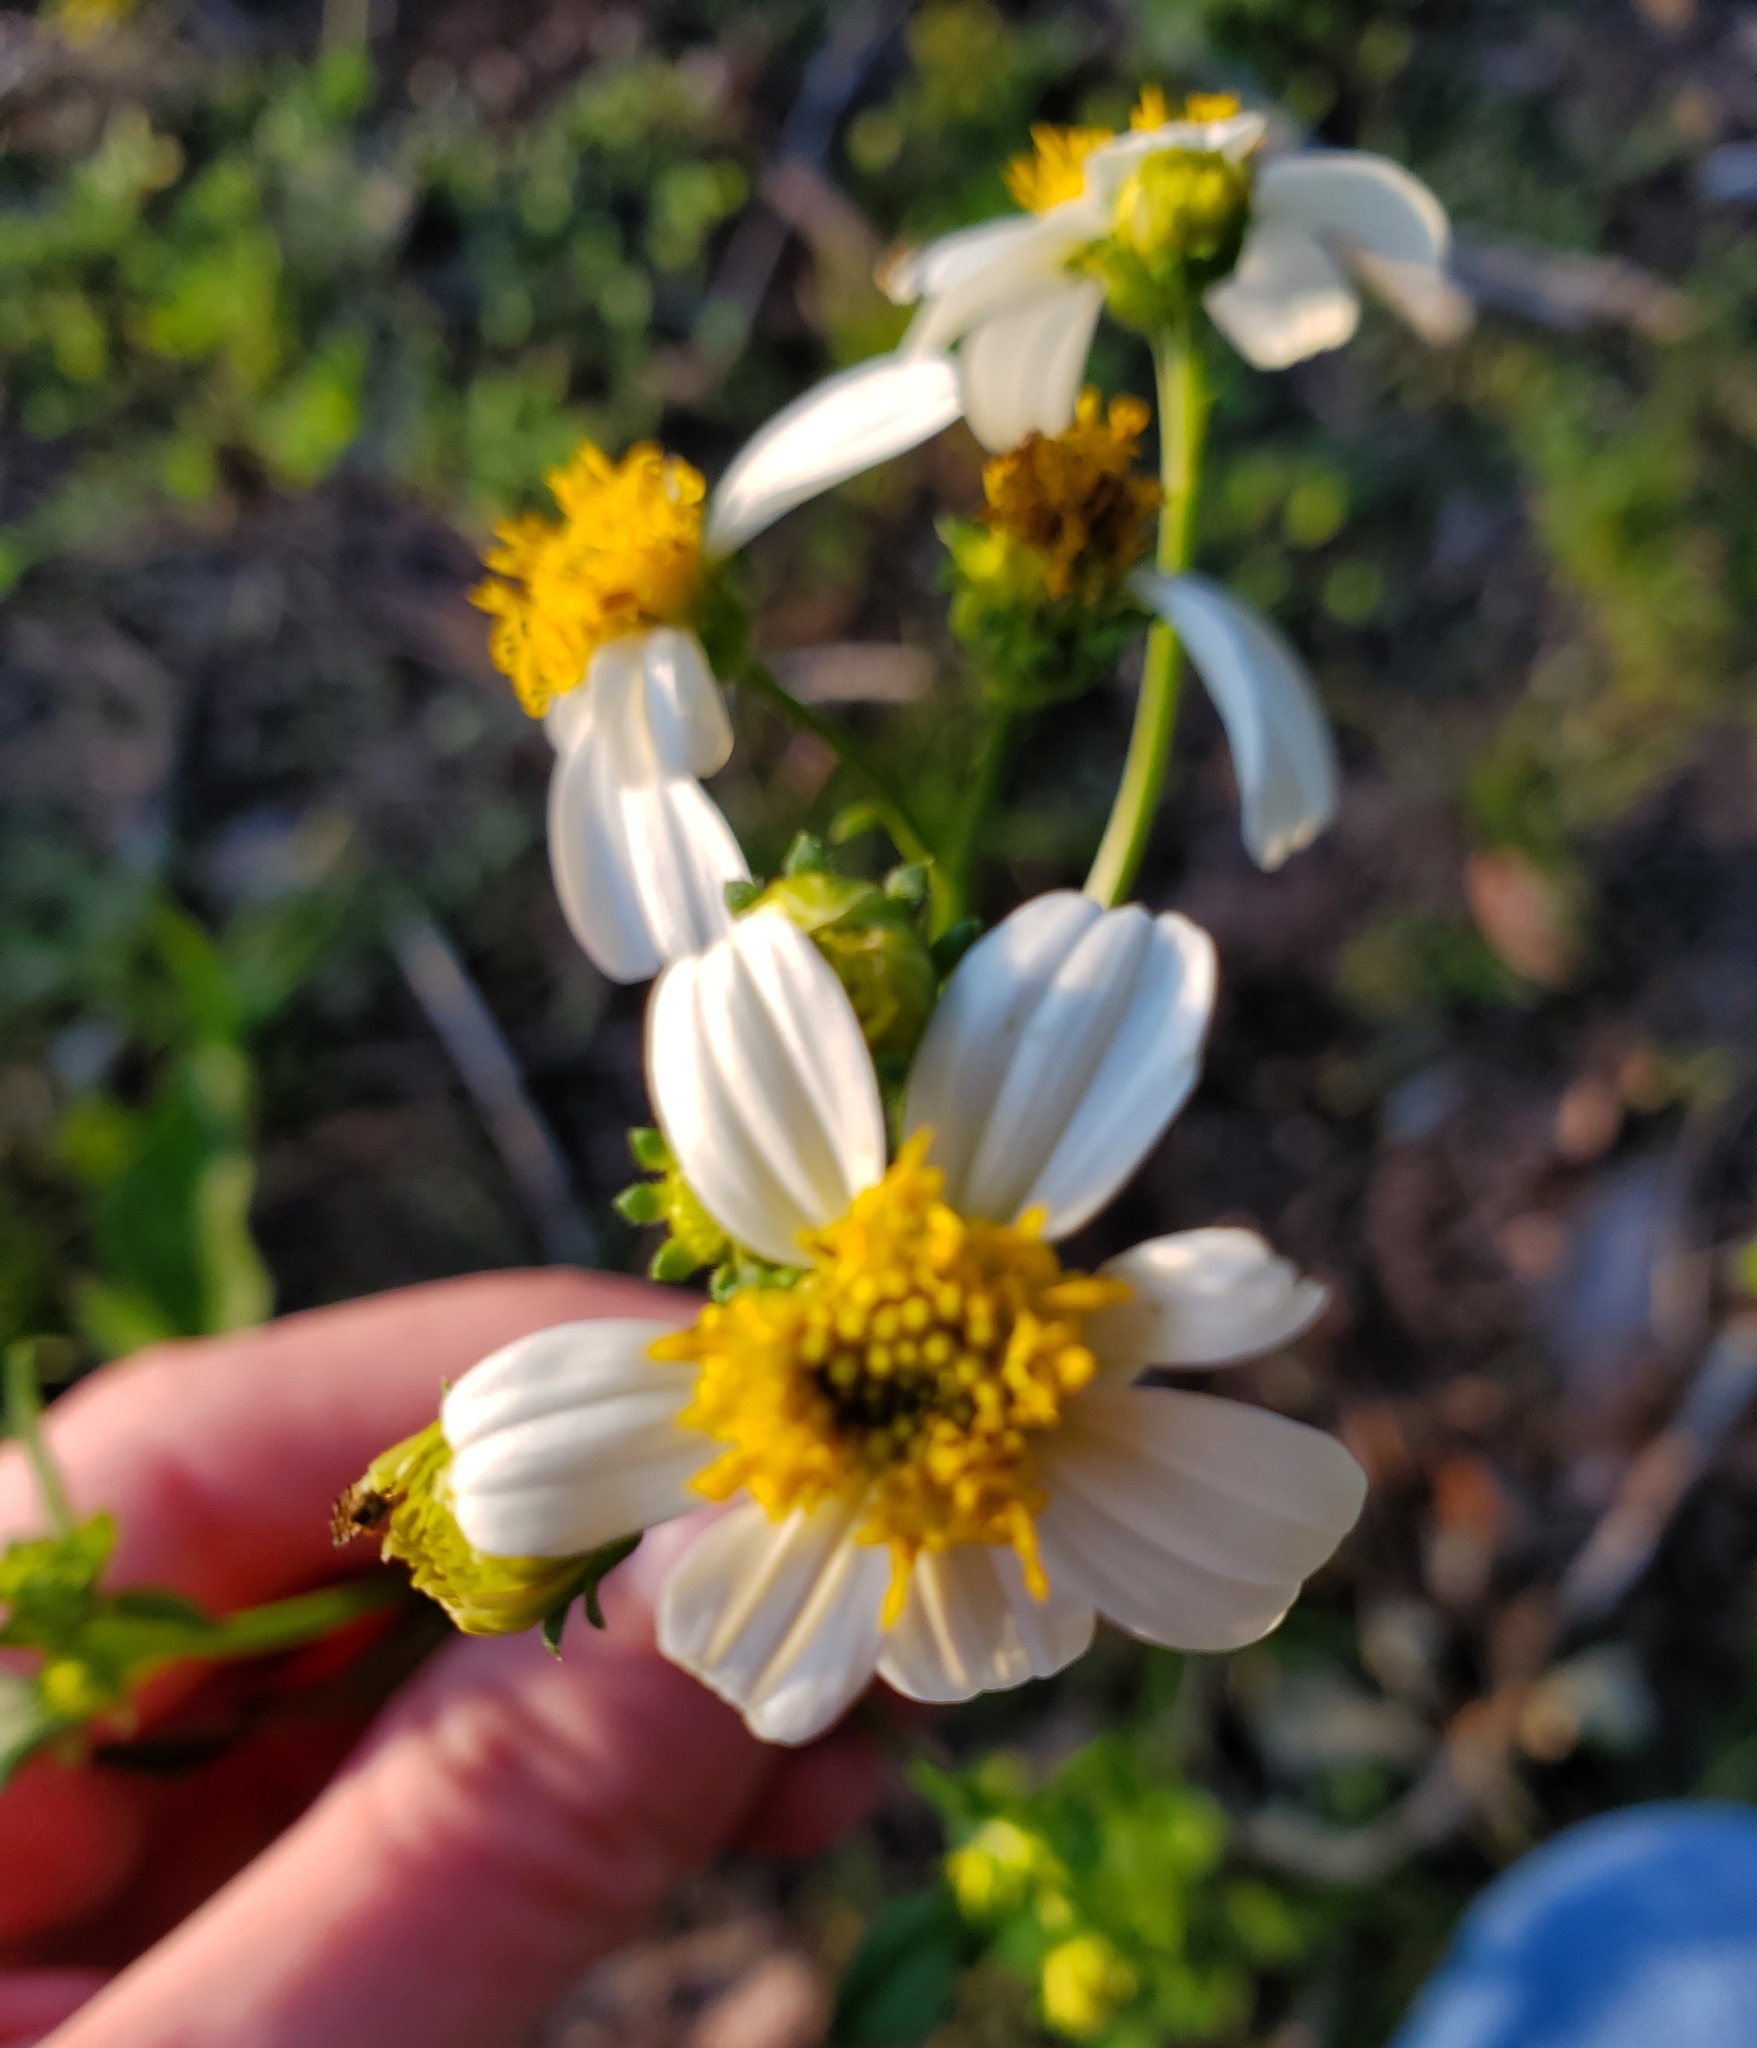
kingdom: Plantae
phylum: Tracheophyta
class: Magnoliopsida
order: Asterales
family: Asteraceae
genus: Bidens
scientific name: Bidens alba
